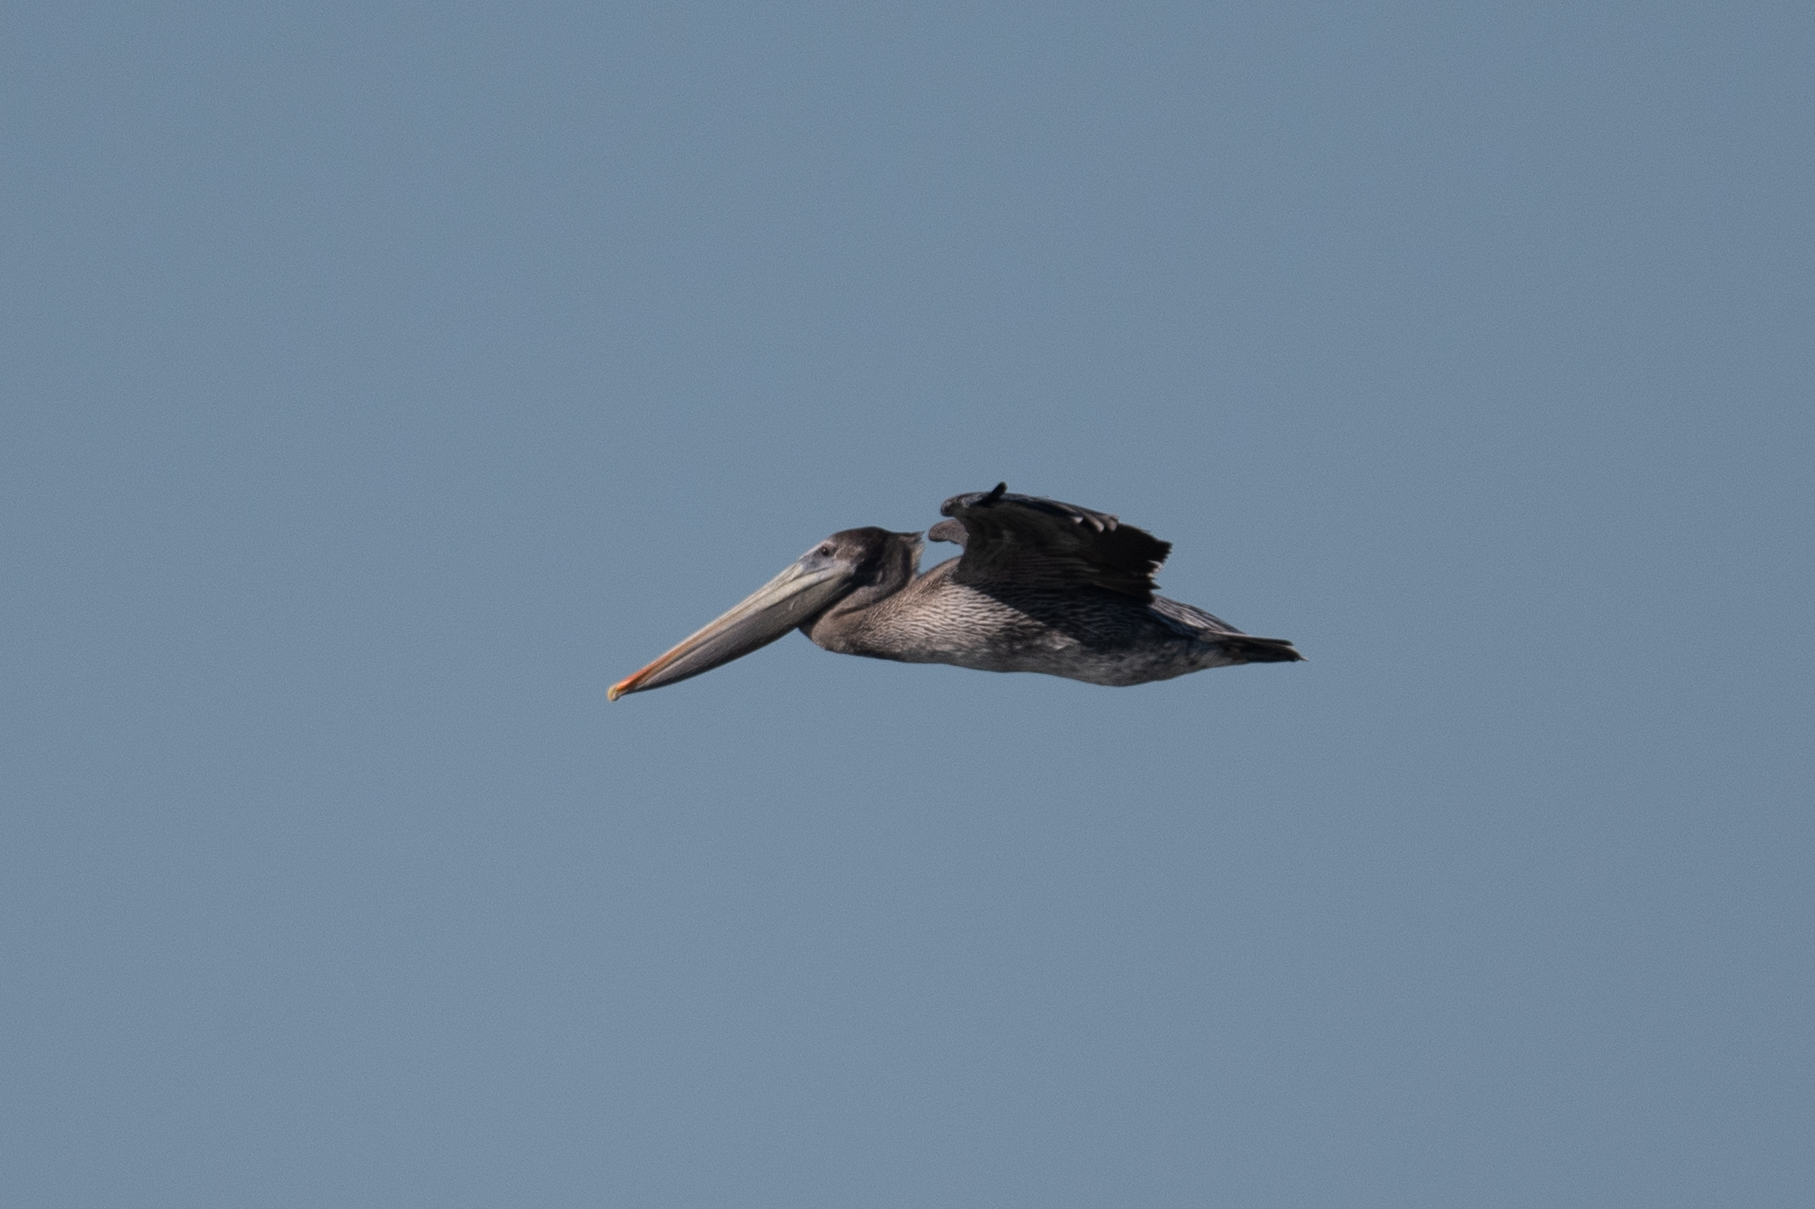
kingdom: Animalia
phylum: Chordata
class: Aves
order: Pelecaniformes
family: Pelecanidae
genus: Pelecanus
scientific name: Pelecanus occidentalis
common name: Brown pelican
